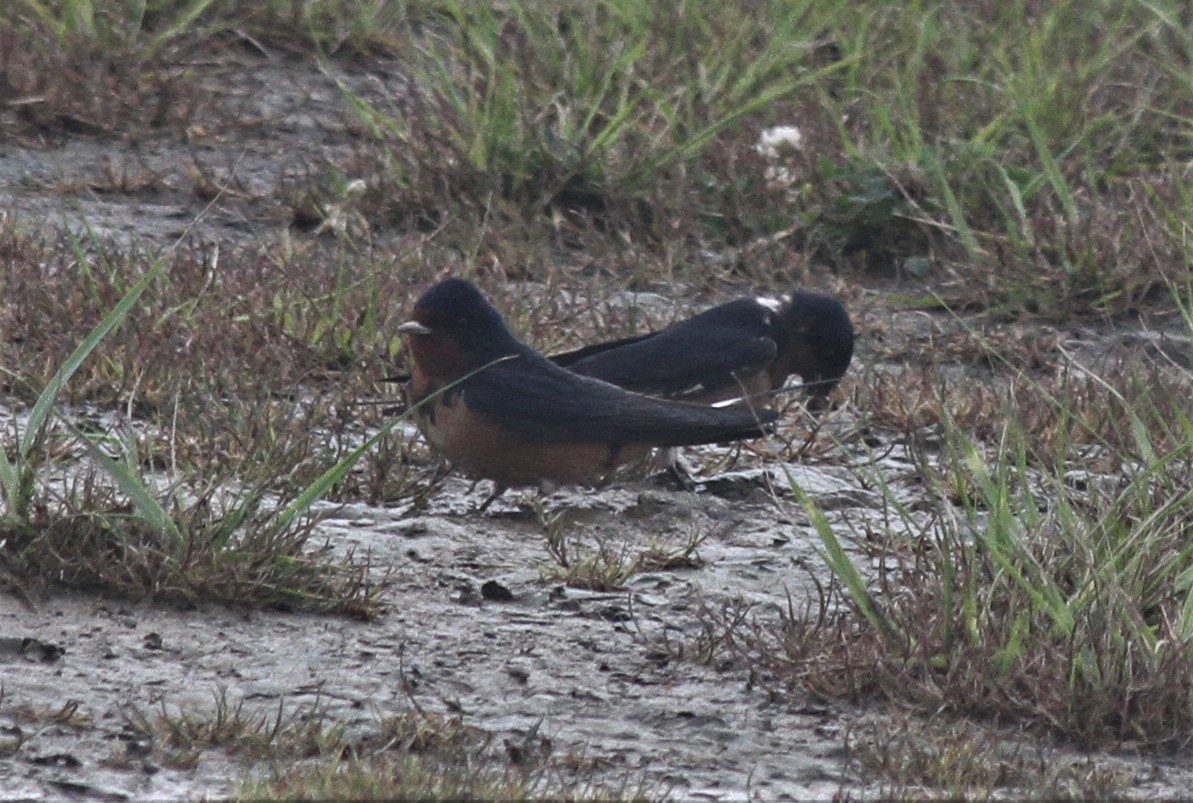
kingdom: Animalia
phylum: Chordata
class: Aves
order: Passeriformes
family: Hirundinidae
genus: Hirundo
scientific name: Hirundo rustica
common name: Barn swallow
